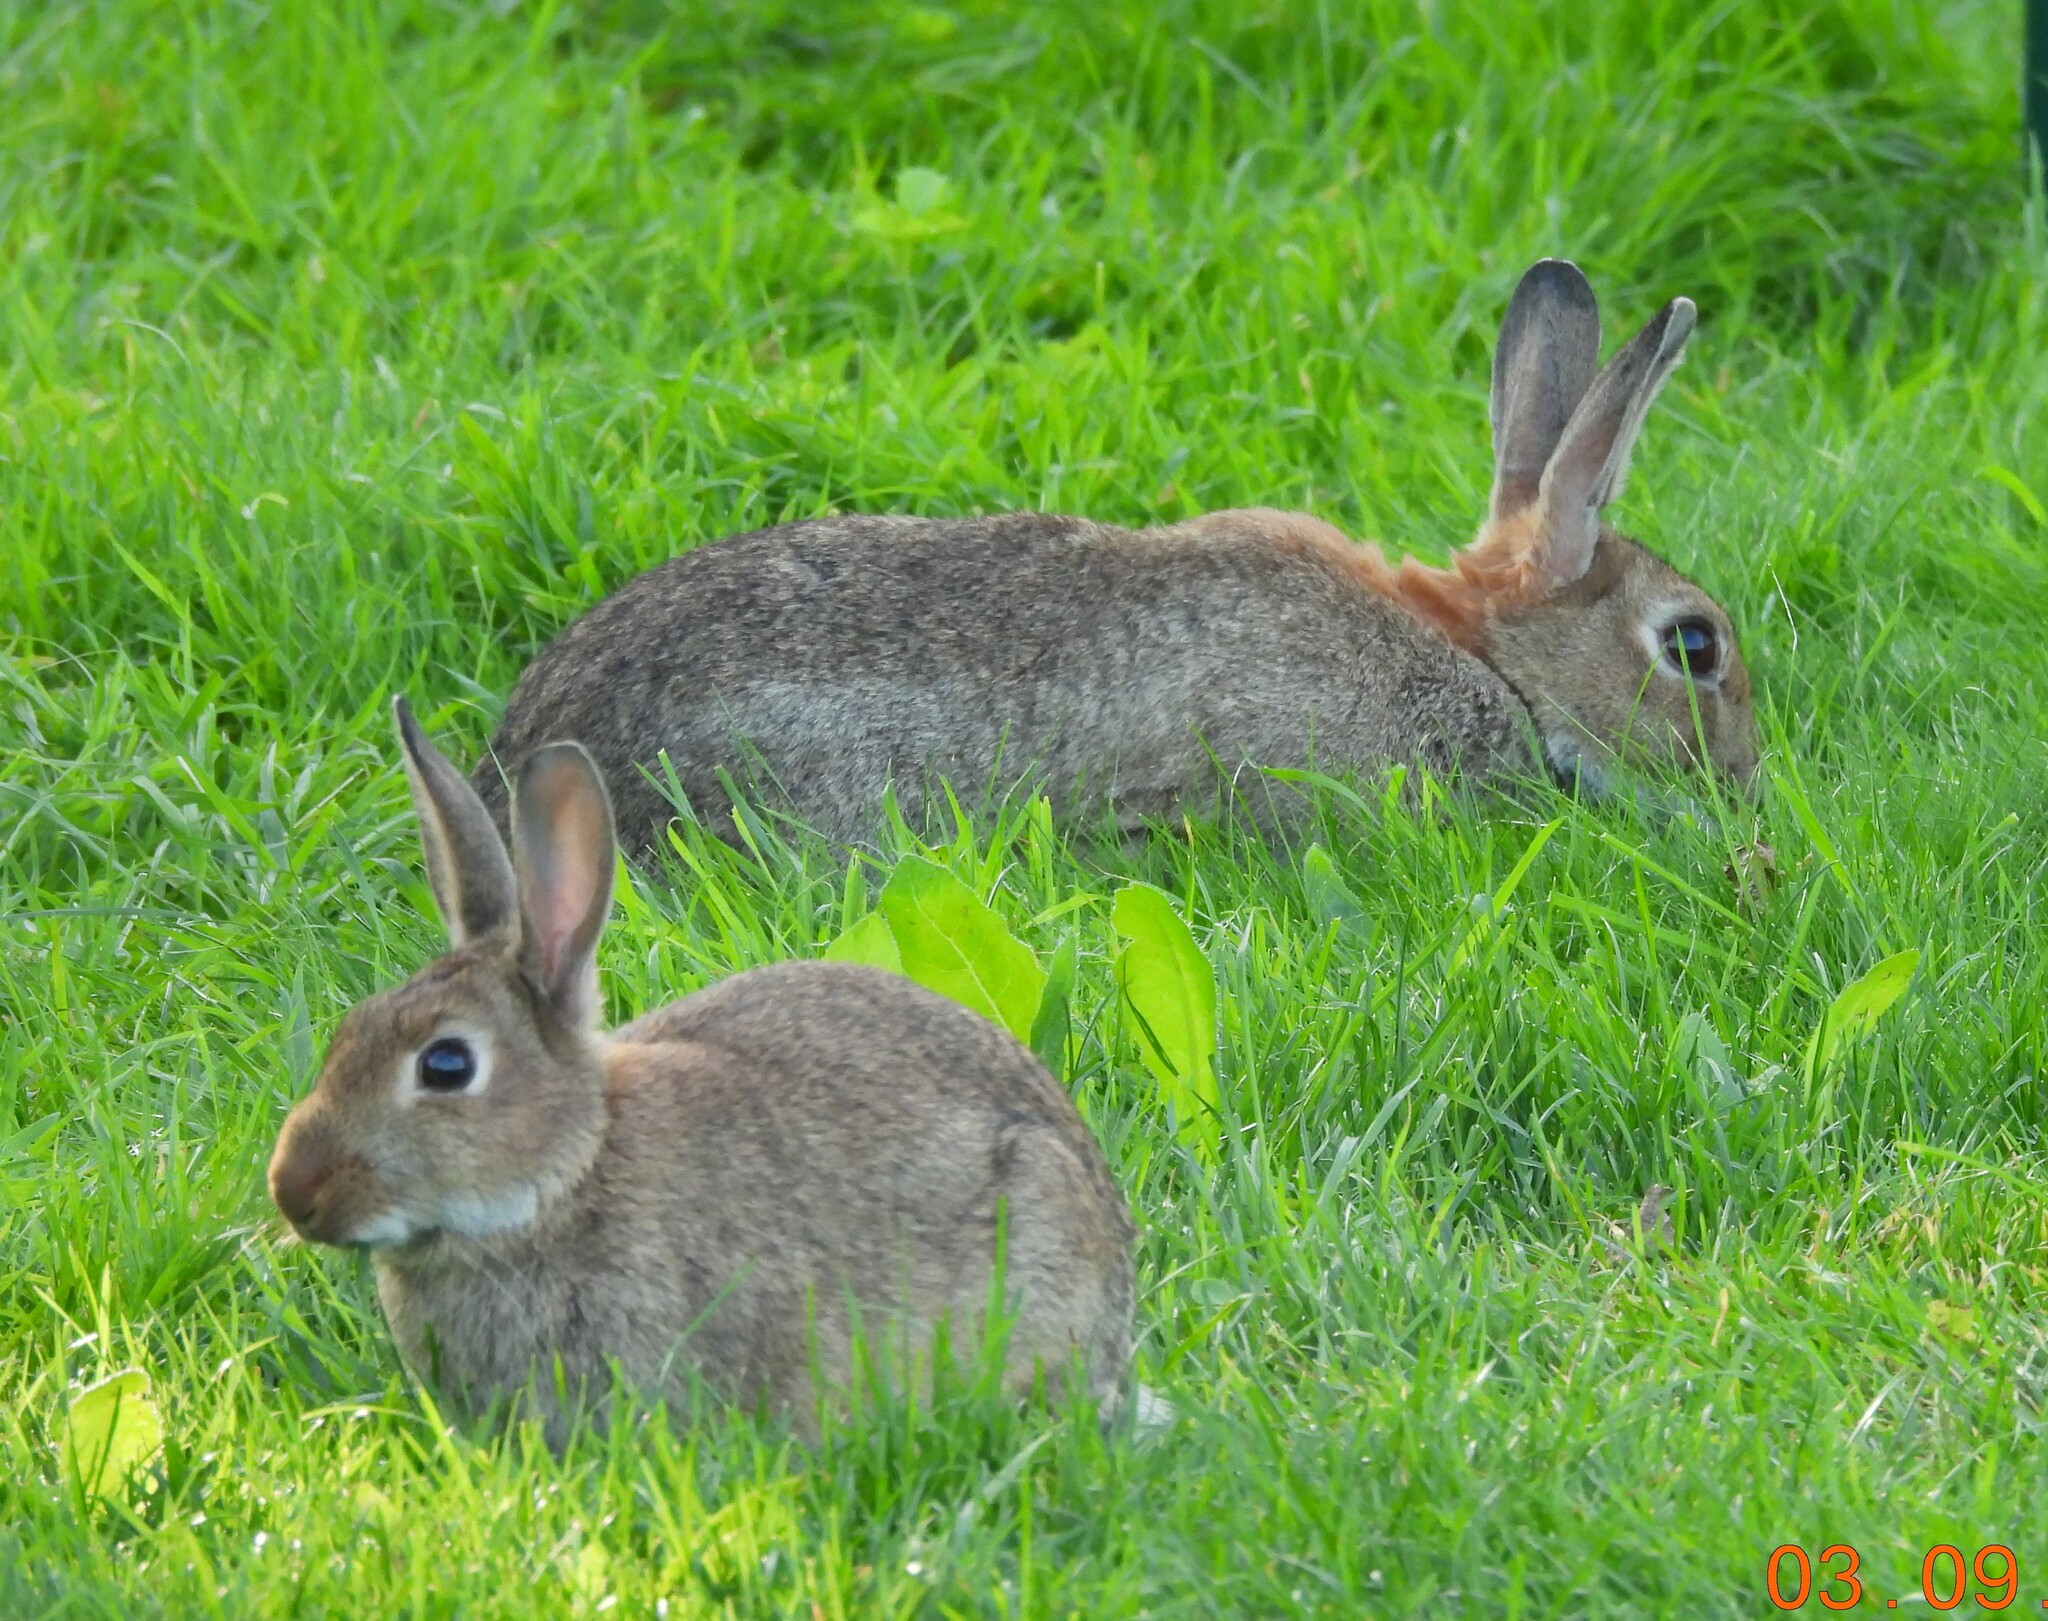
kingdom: Animalia
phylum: Chordata
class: Mammalia
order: Lagomorpha
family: Leporidae
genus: Oryctolagus
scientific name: Oryctolagus cuniculus
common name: European rabbit
